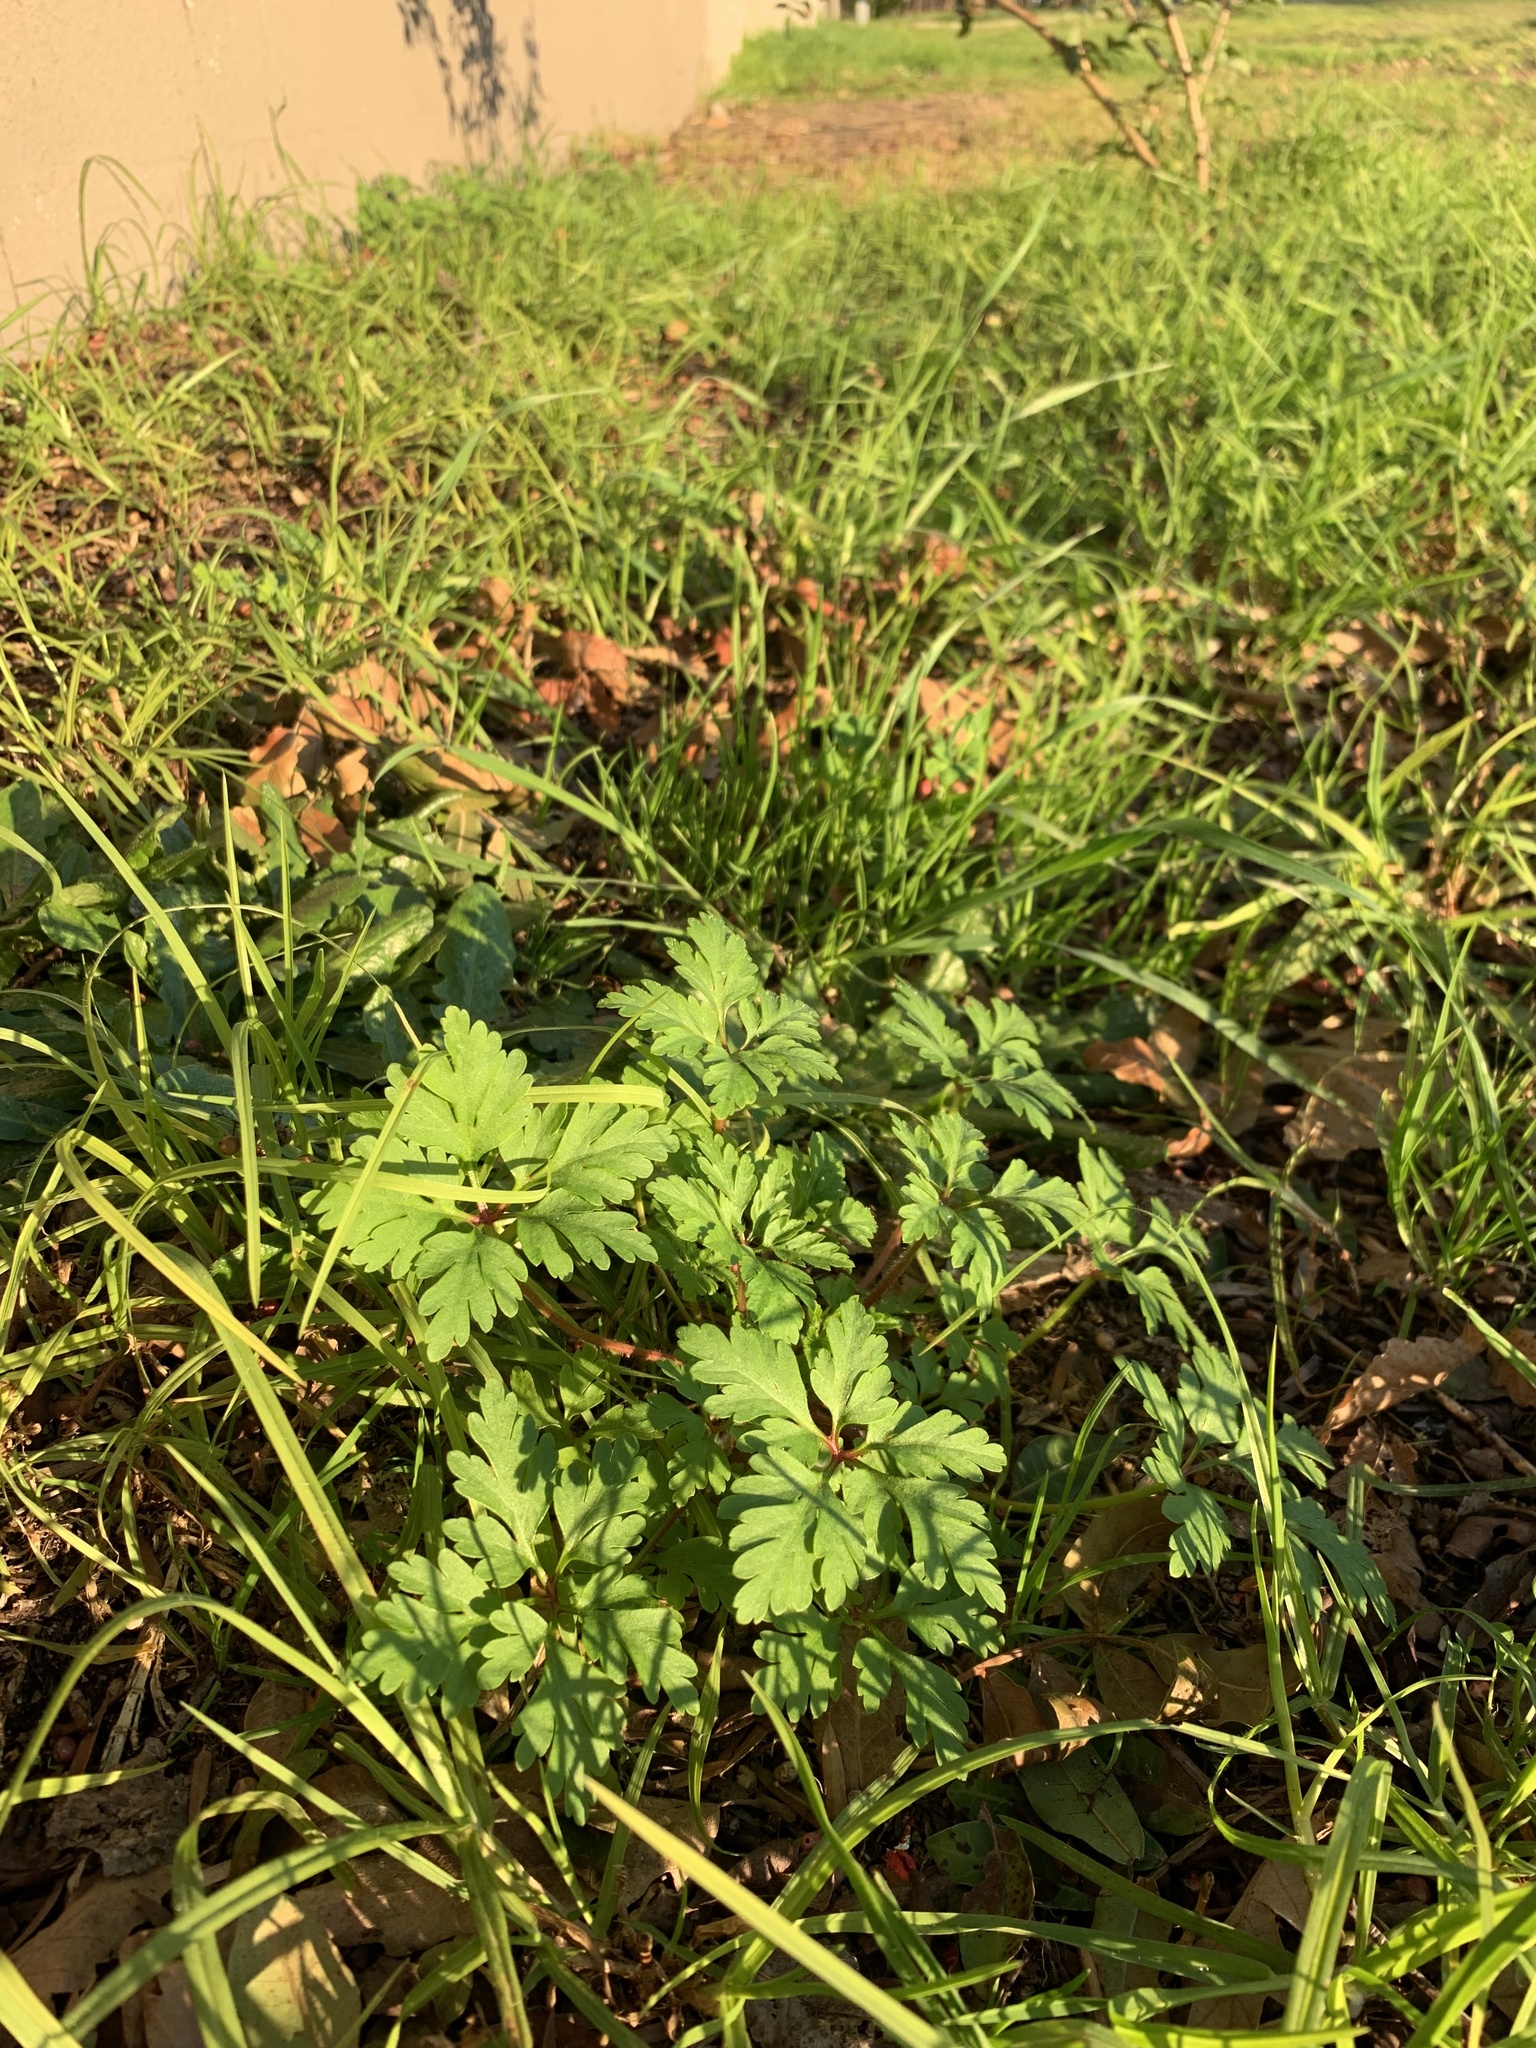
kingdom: Plantae
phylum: Tracheophyta
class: Magnoliopsida
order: Geraniales
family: Geraniaceae
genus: Geranium
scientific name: Geranium purpureum
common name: Little-robin
